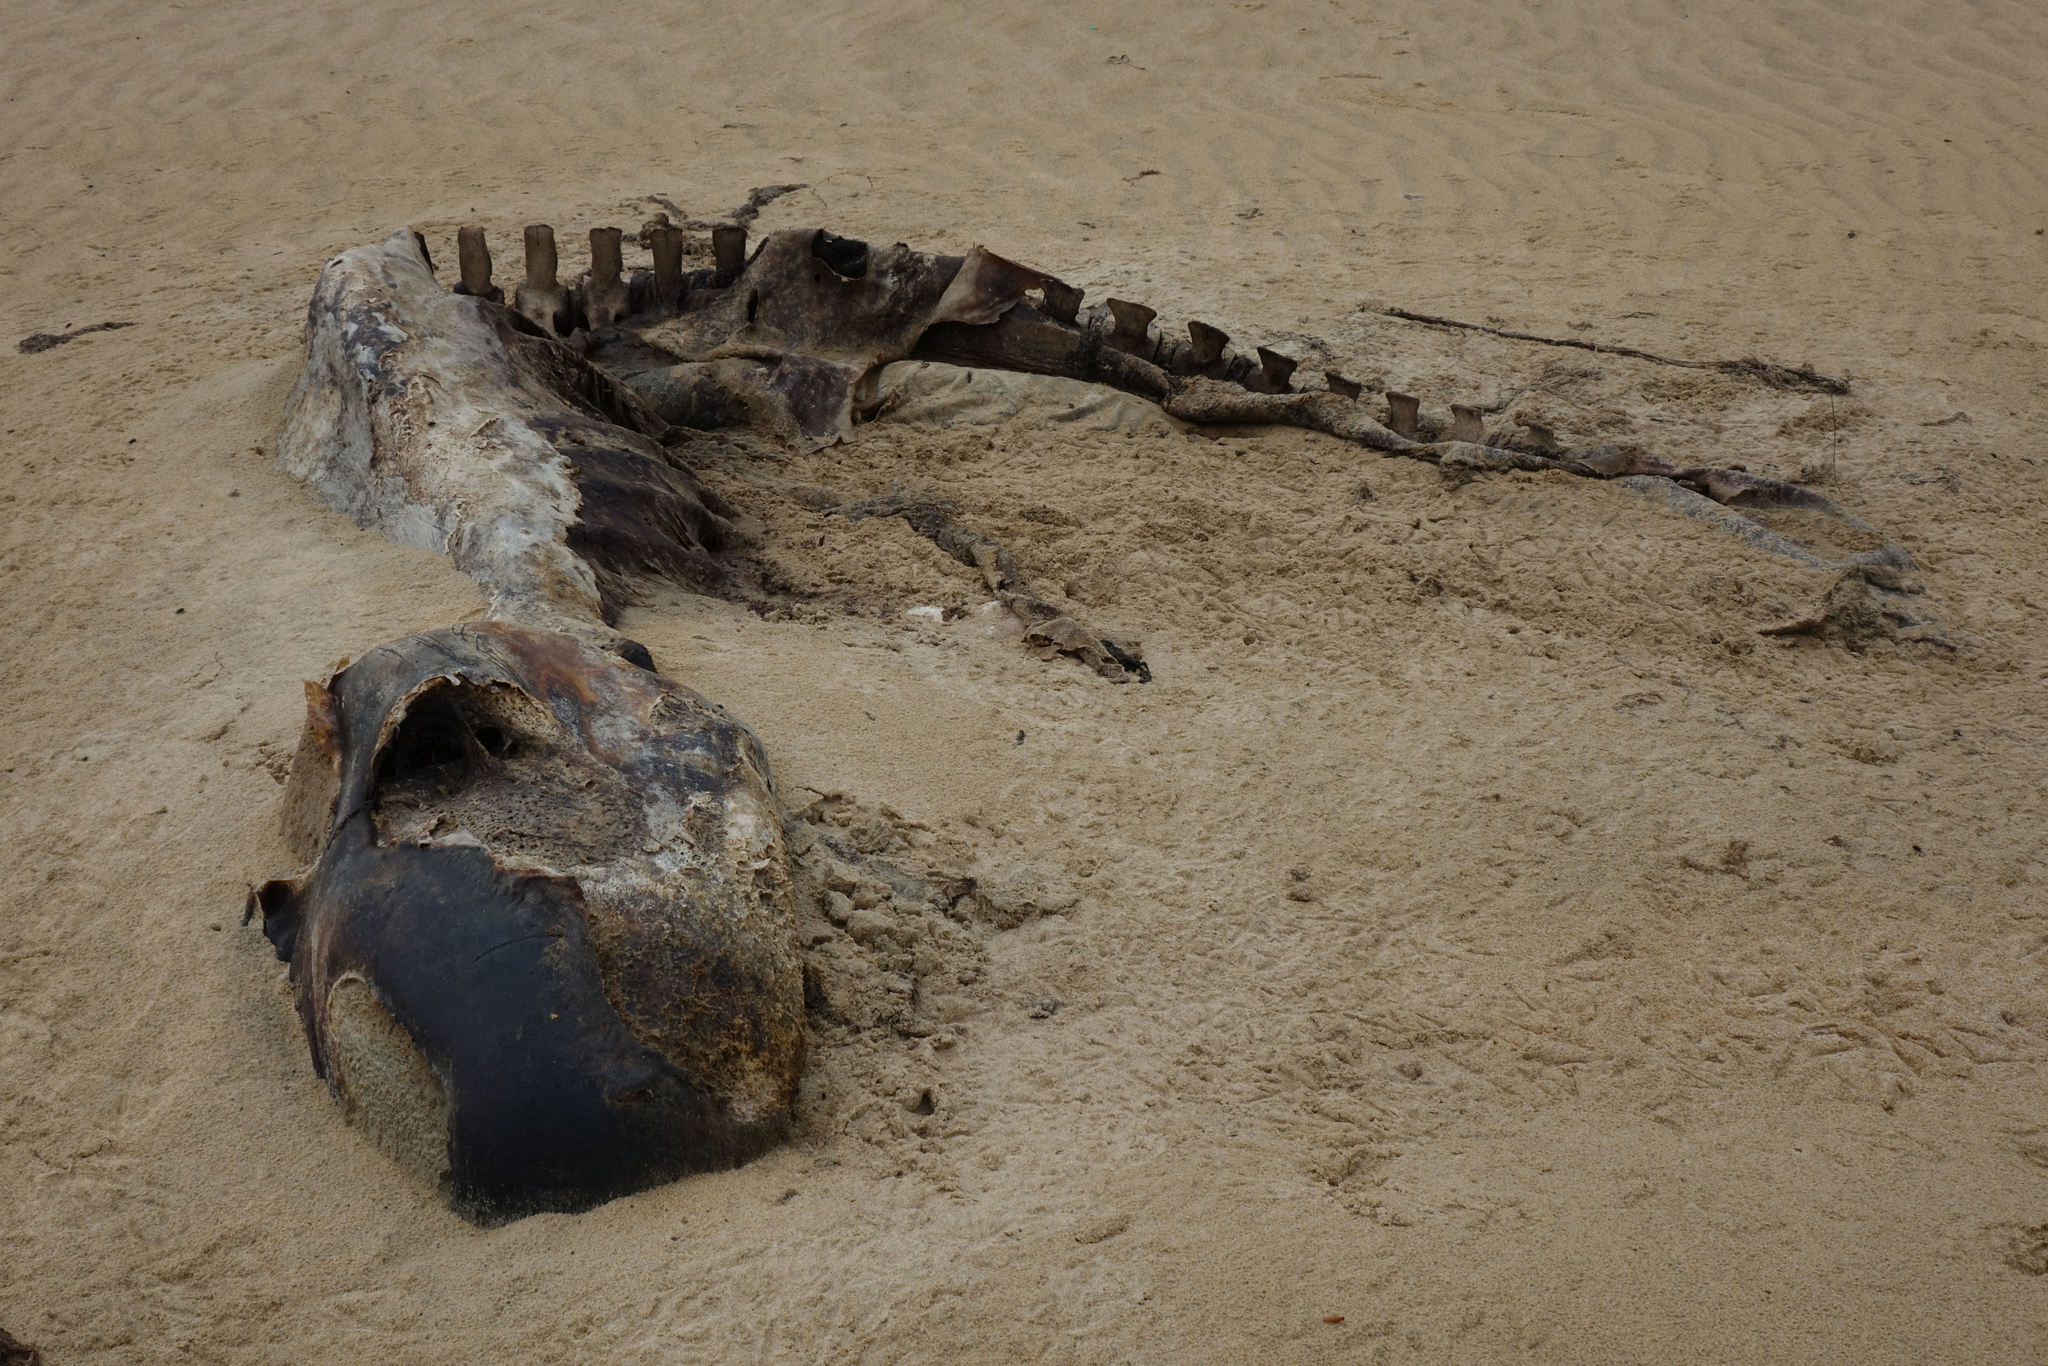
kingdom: Animalia
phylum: Chordata
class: Mammalia
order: Cetacea
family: Delphinidae
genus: Globicephala
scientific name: Globicephala melas
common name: Long-finned pilot whale
